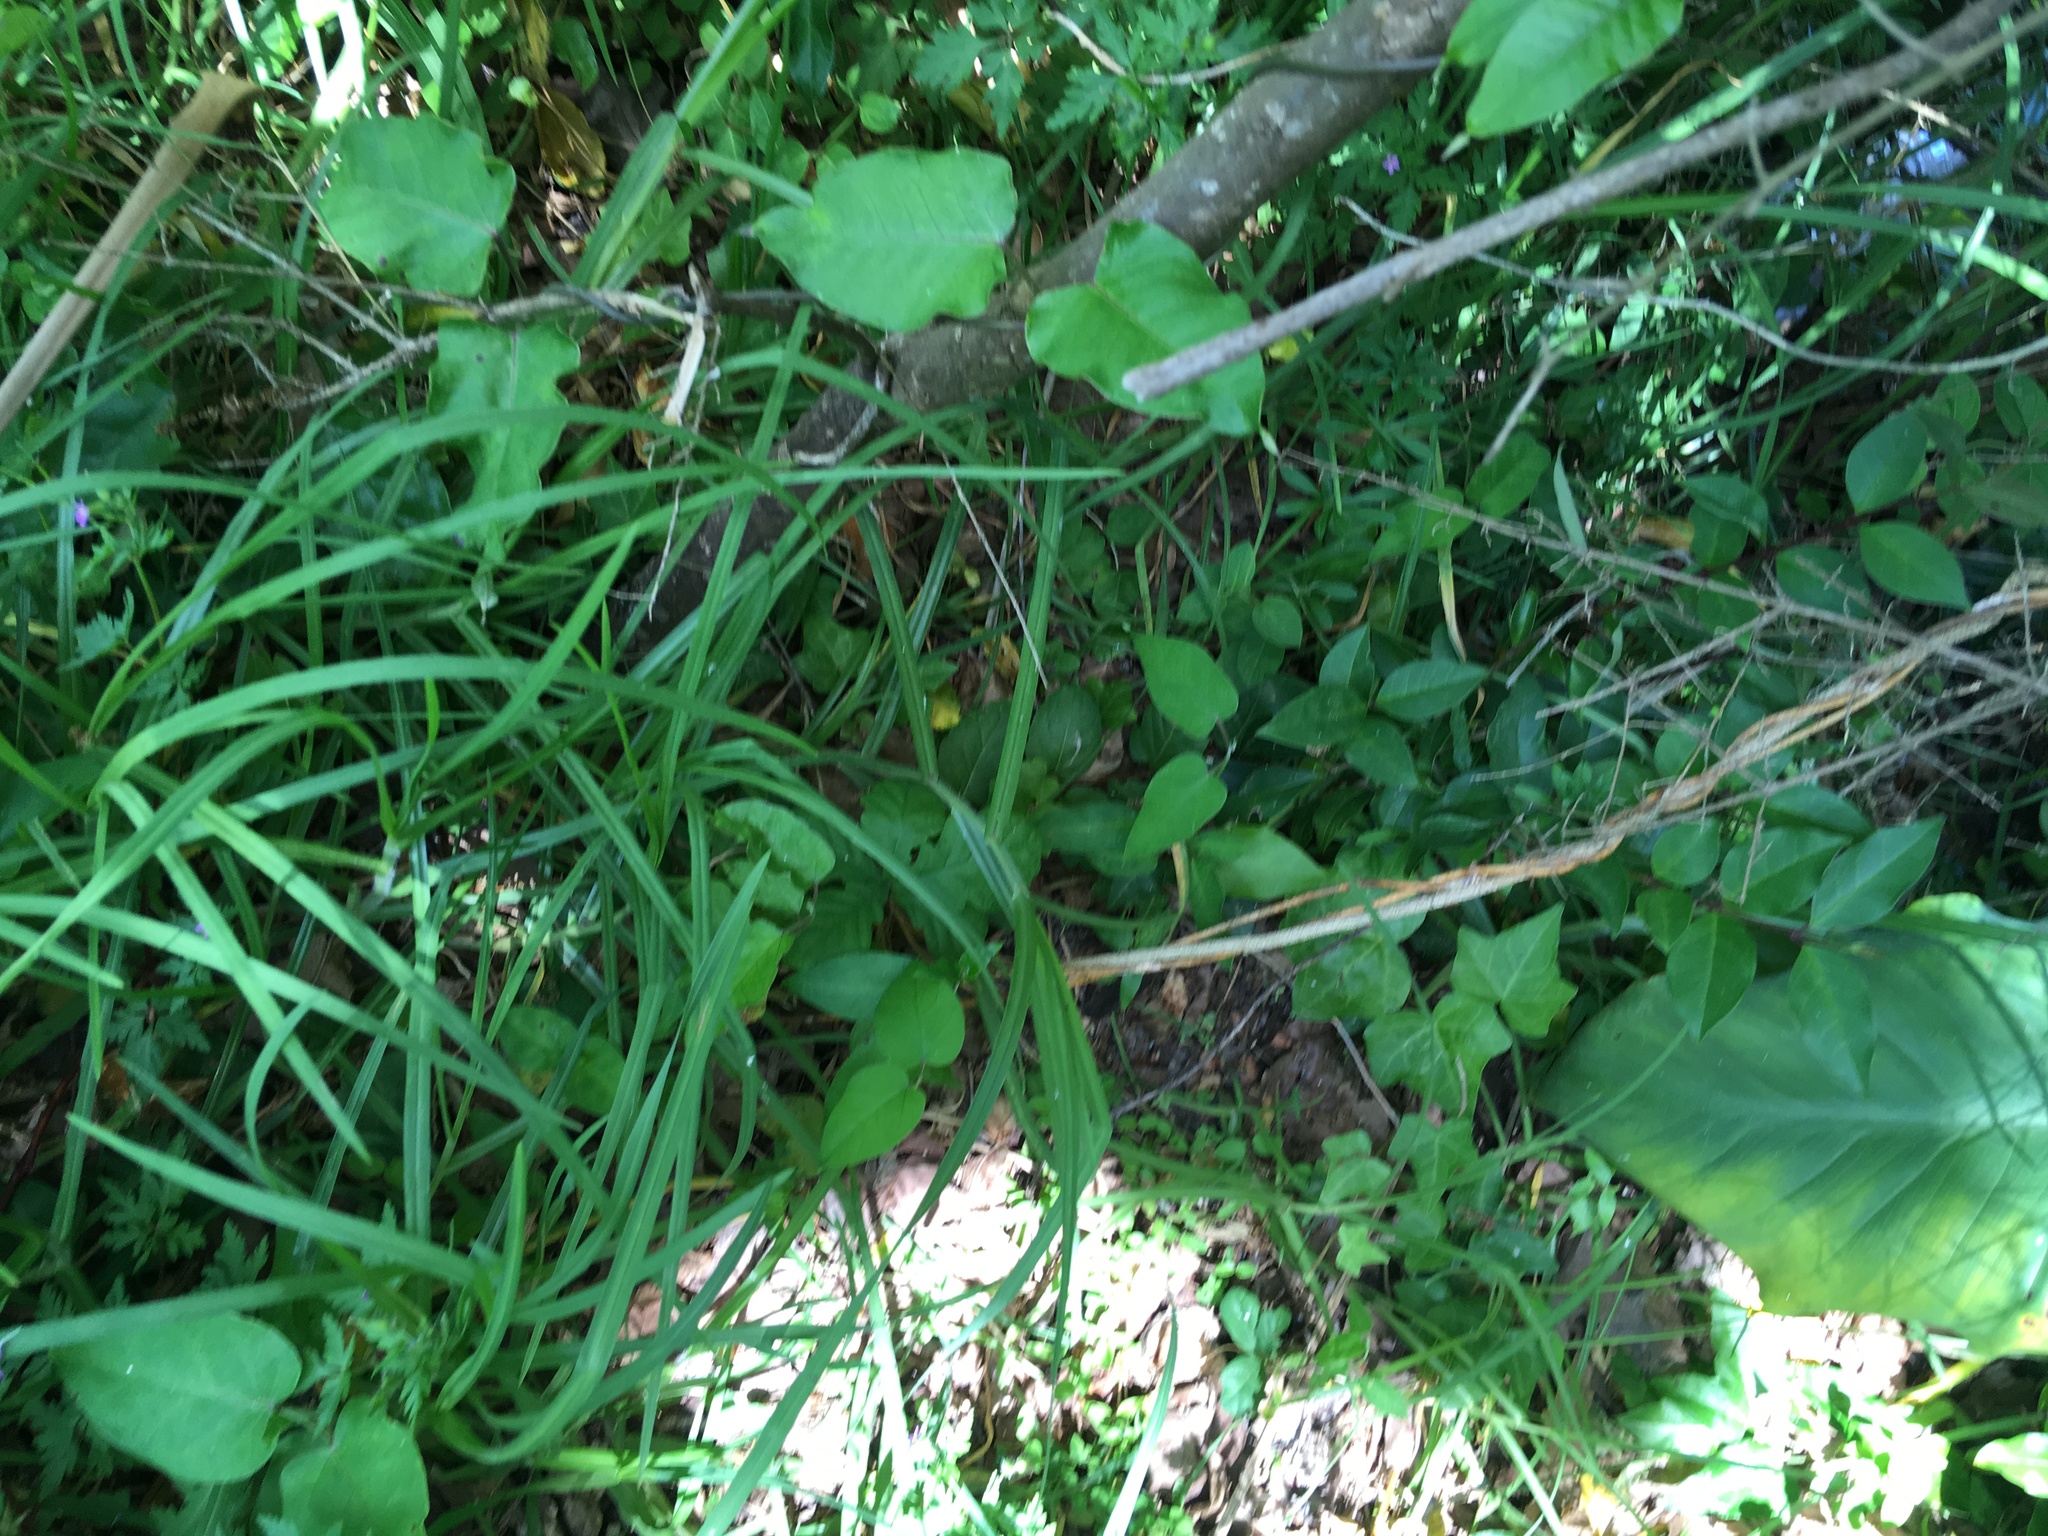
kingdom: Plantae
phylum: Tracheophyta
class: Magnoliopsida
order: Gentianales
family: Apocynaceae
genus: Araujia
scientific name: Araujia sericifera
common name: White bladderflower
